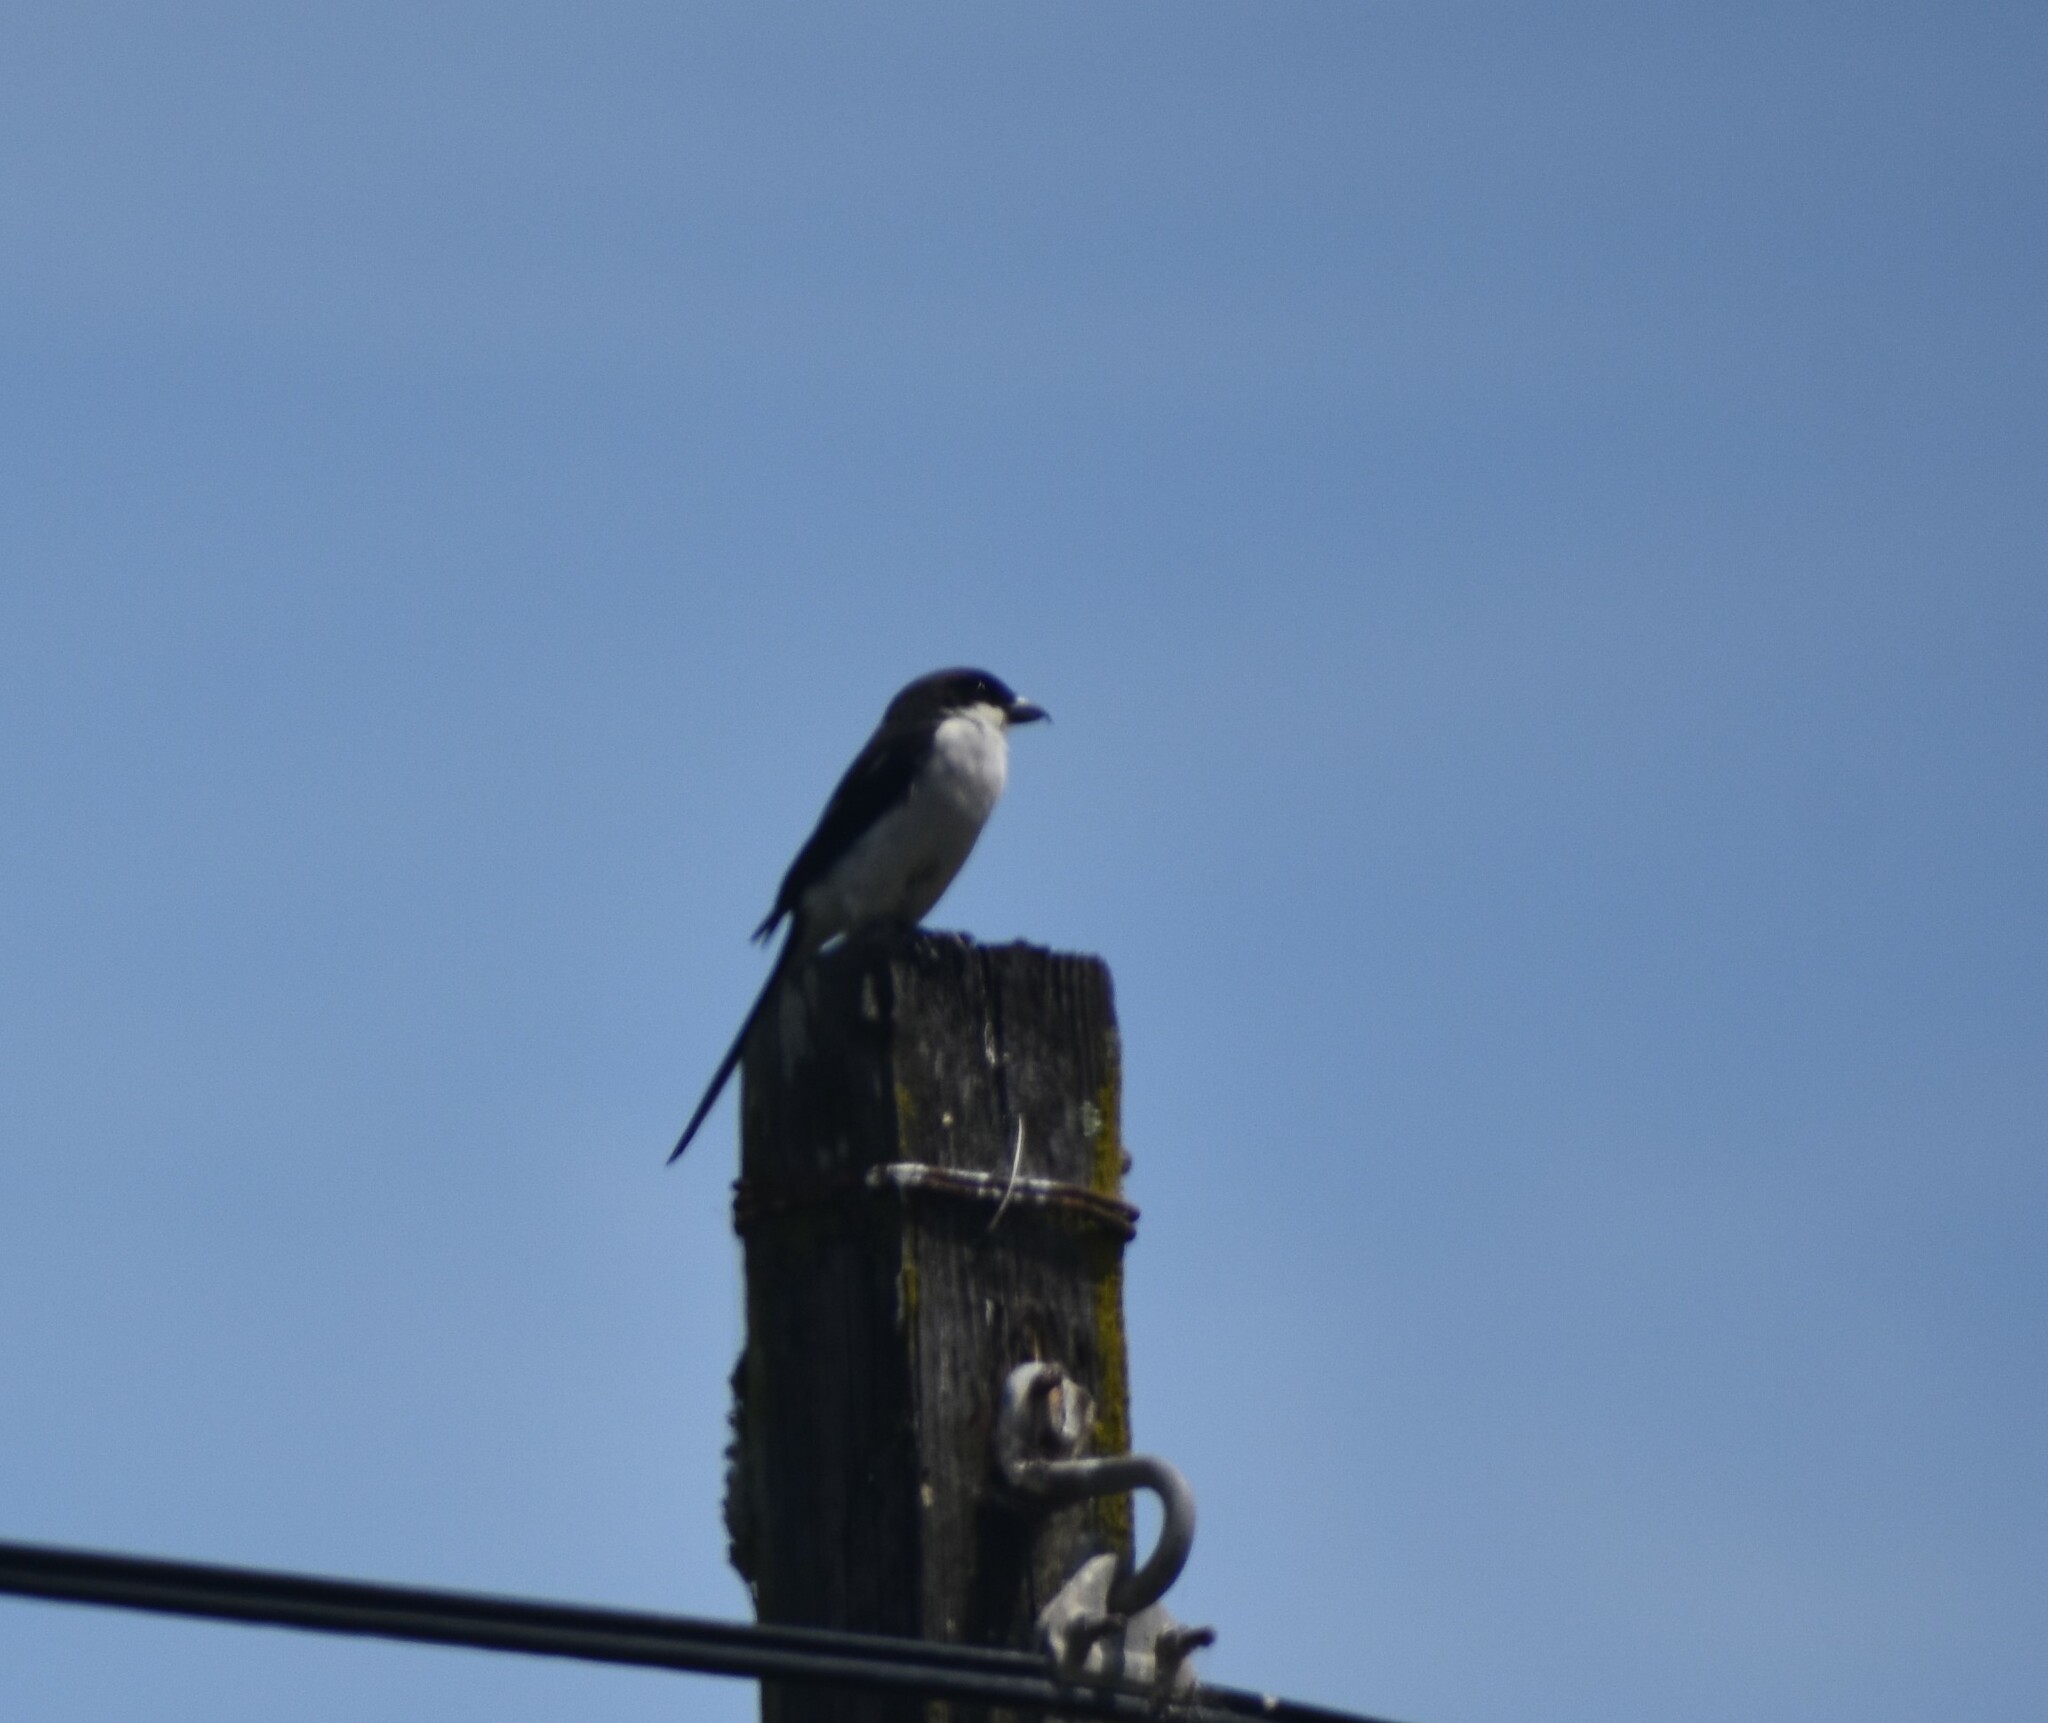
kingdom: Animalia
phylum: Chordata
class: Aves
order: Passeriformes
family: Laniidae
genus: Lanius
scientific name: Lanius collaris
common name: Southern fiscal
